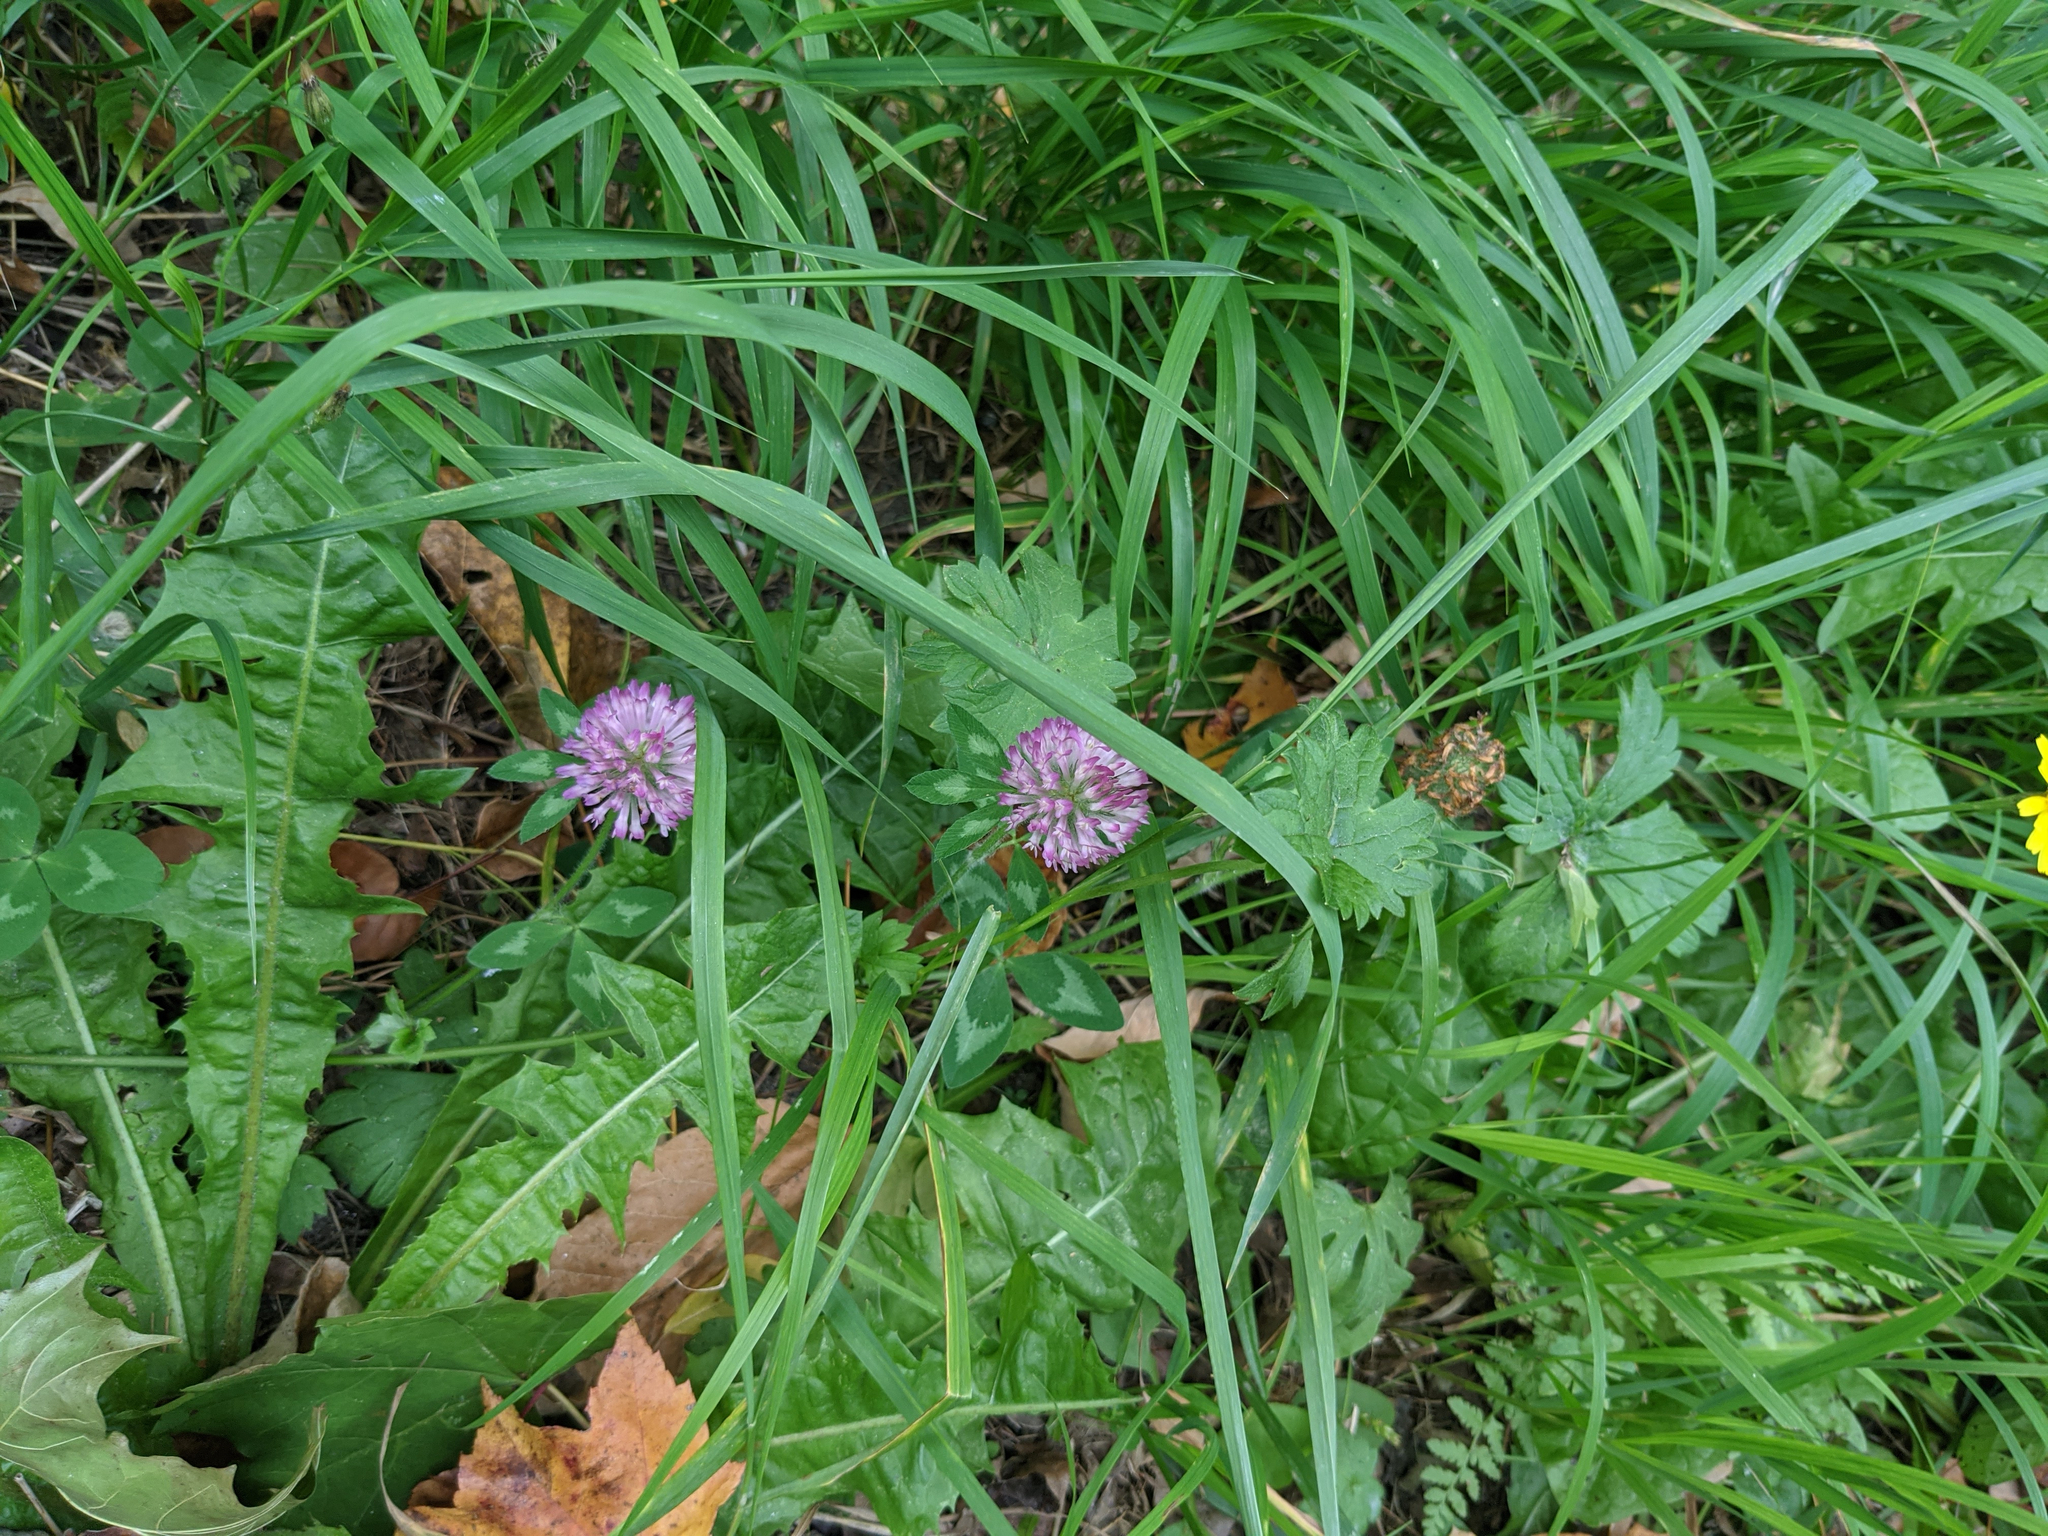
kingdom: Plantae
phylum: Tracheophyta
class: Magnoliopsida
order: Fabales
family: Fabaceae
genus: Trifolium
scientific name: Trifolium pratense
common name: Red clover
